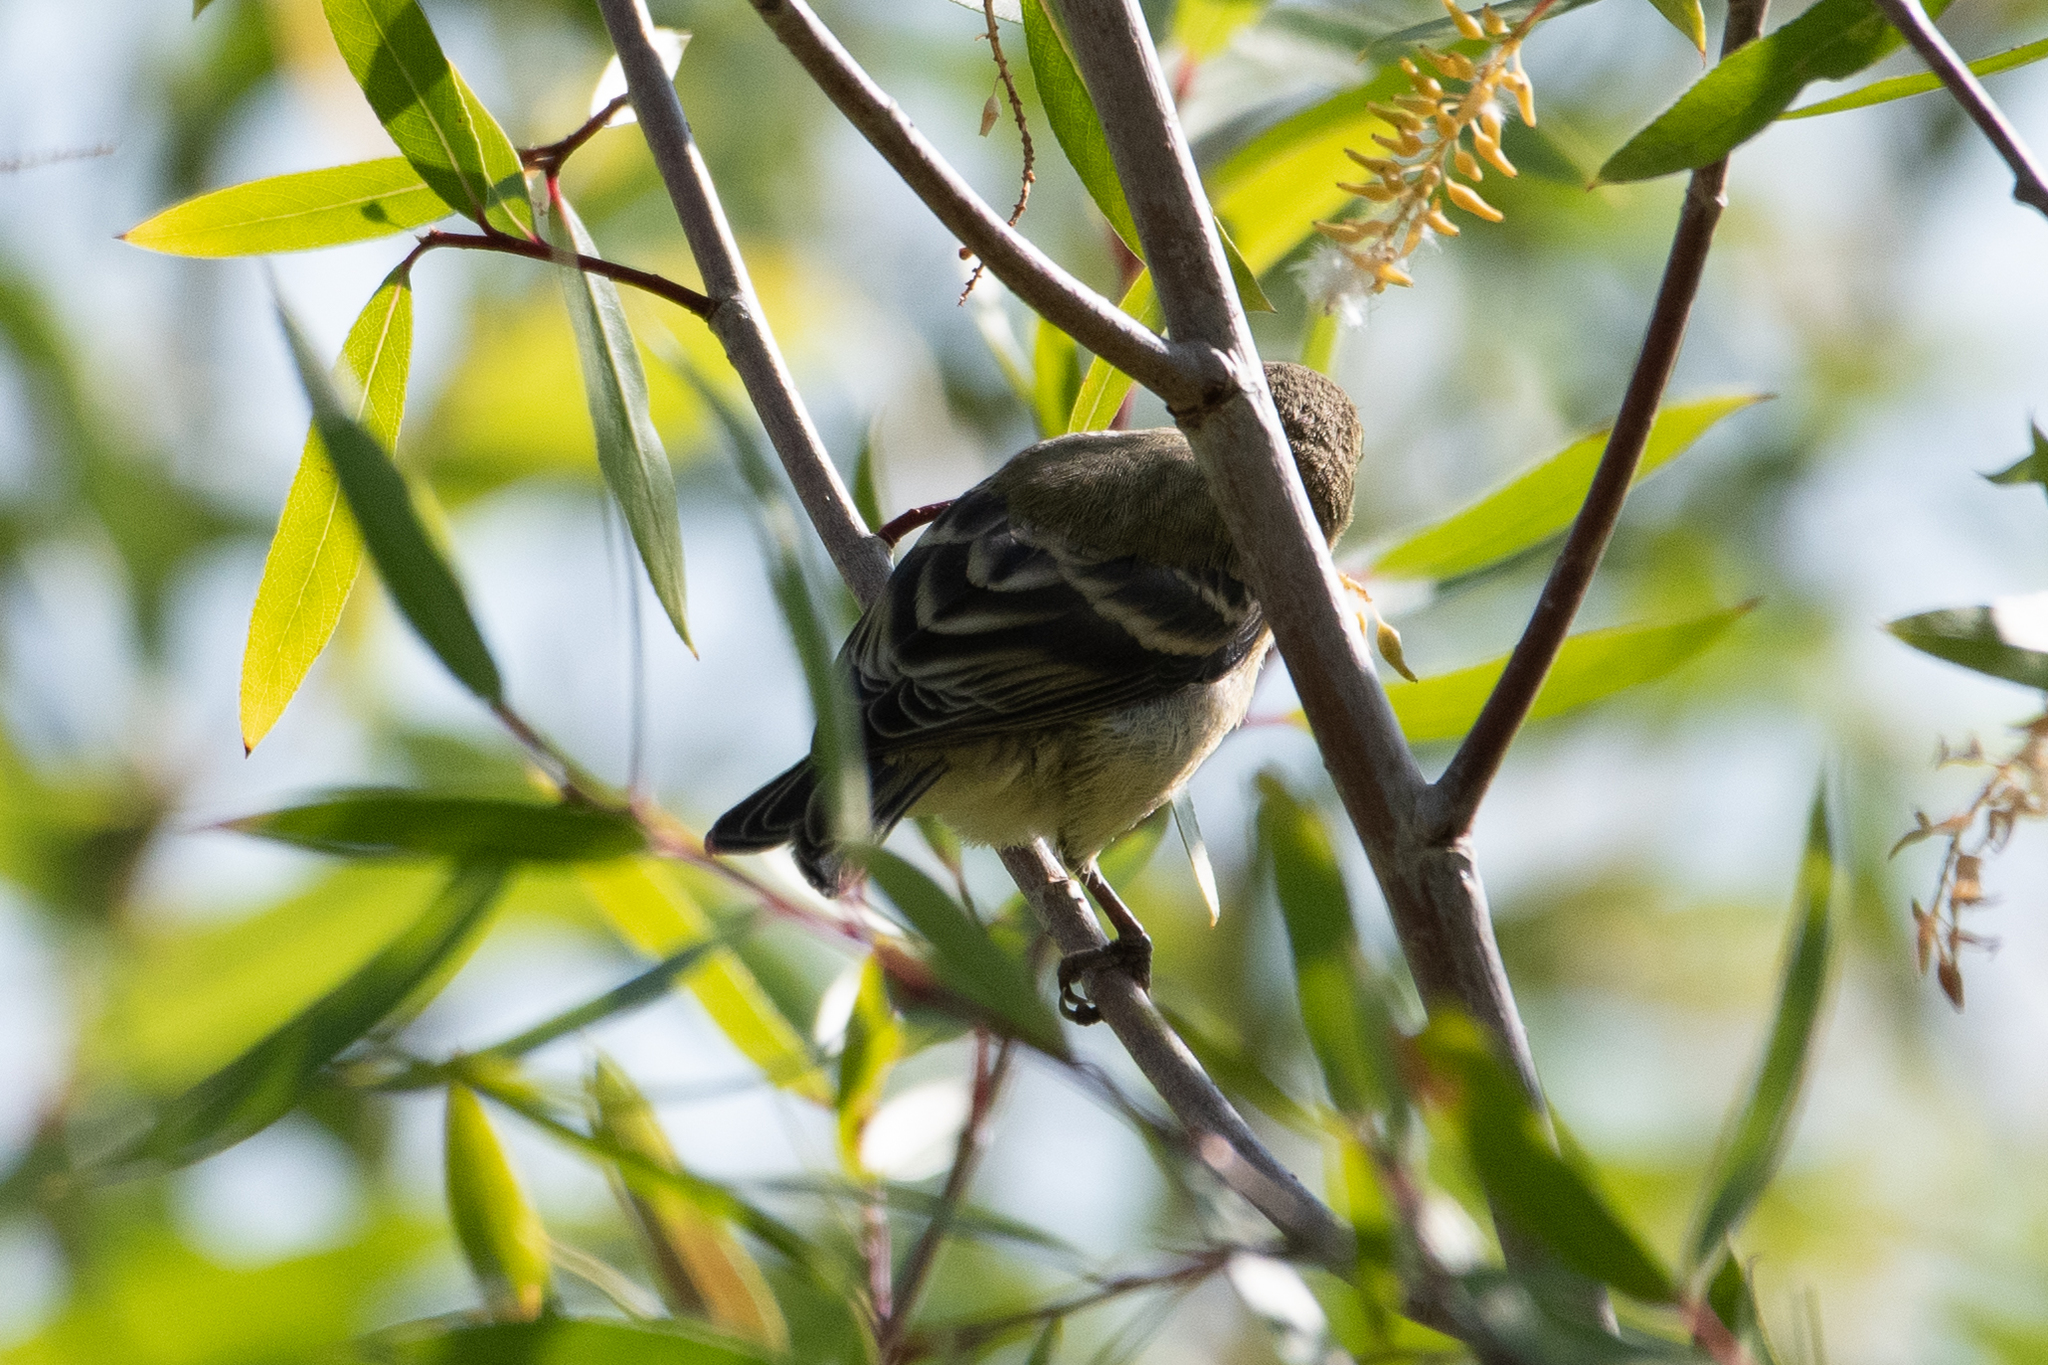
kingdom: Animalia
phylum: Chordata
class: Aves
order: Passeriformes
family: Fringillidae
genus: Spinus
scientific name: Spinus psaltria
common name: Lesser goldfinch
